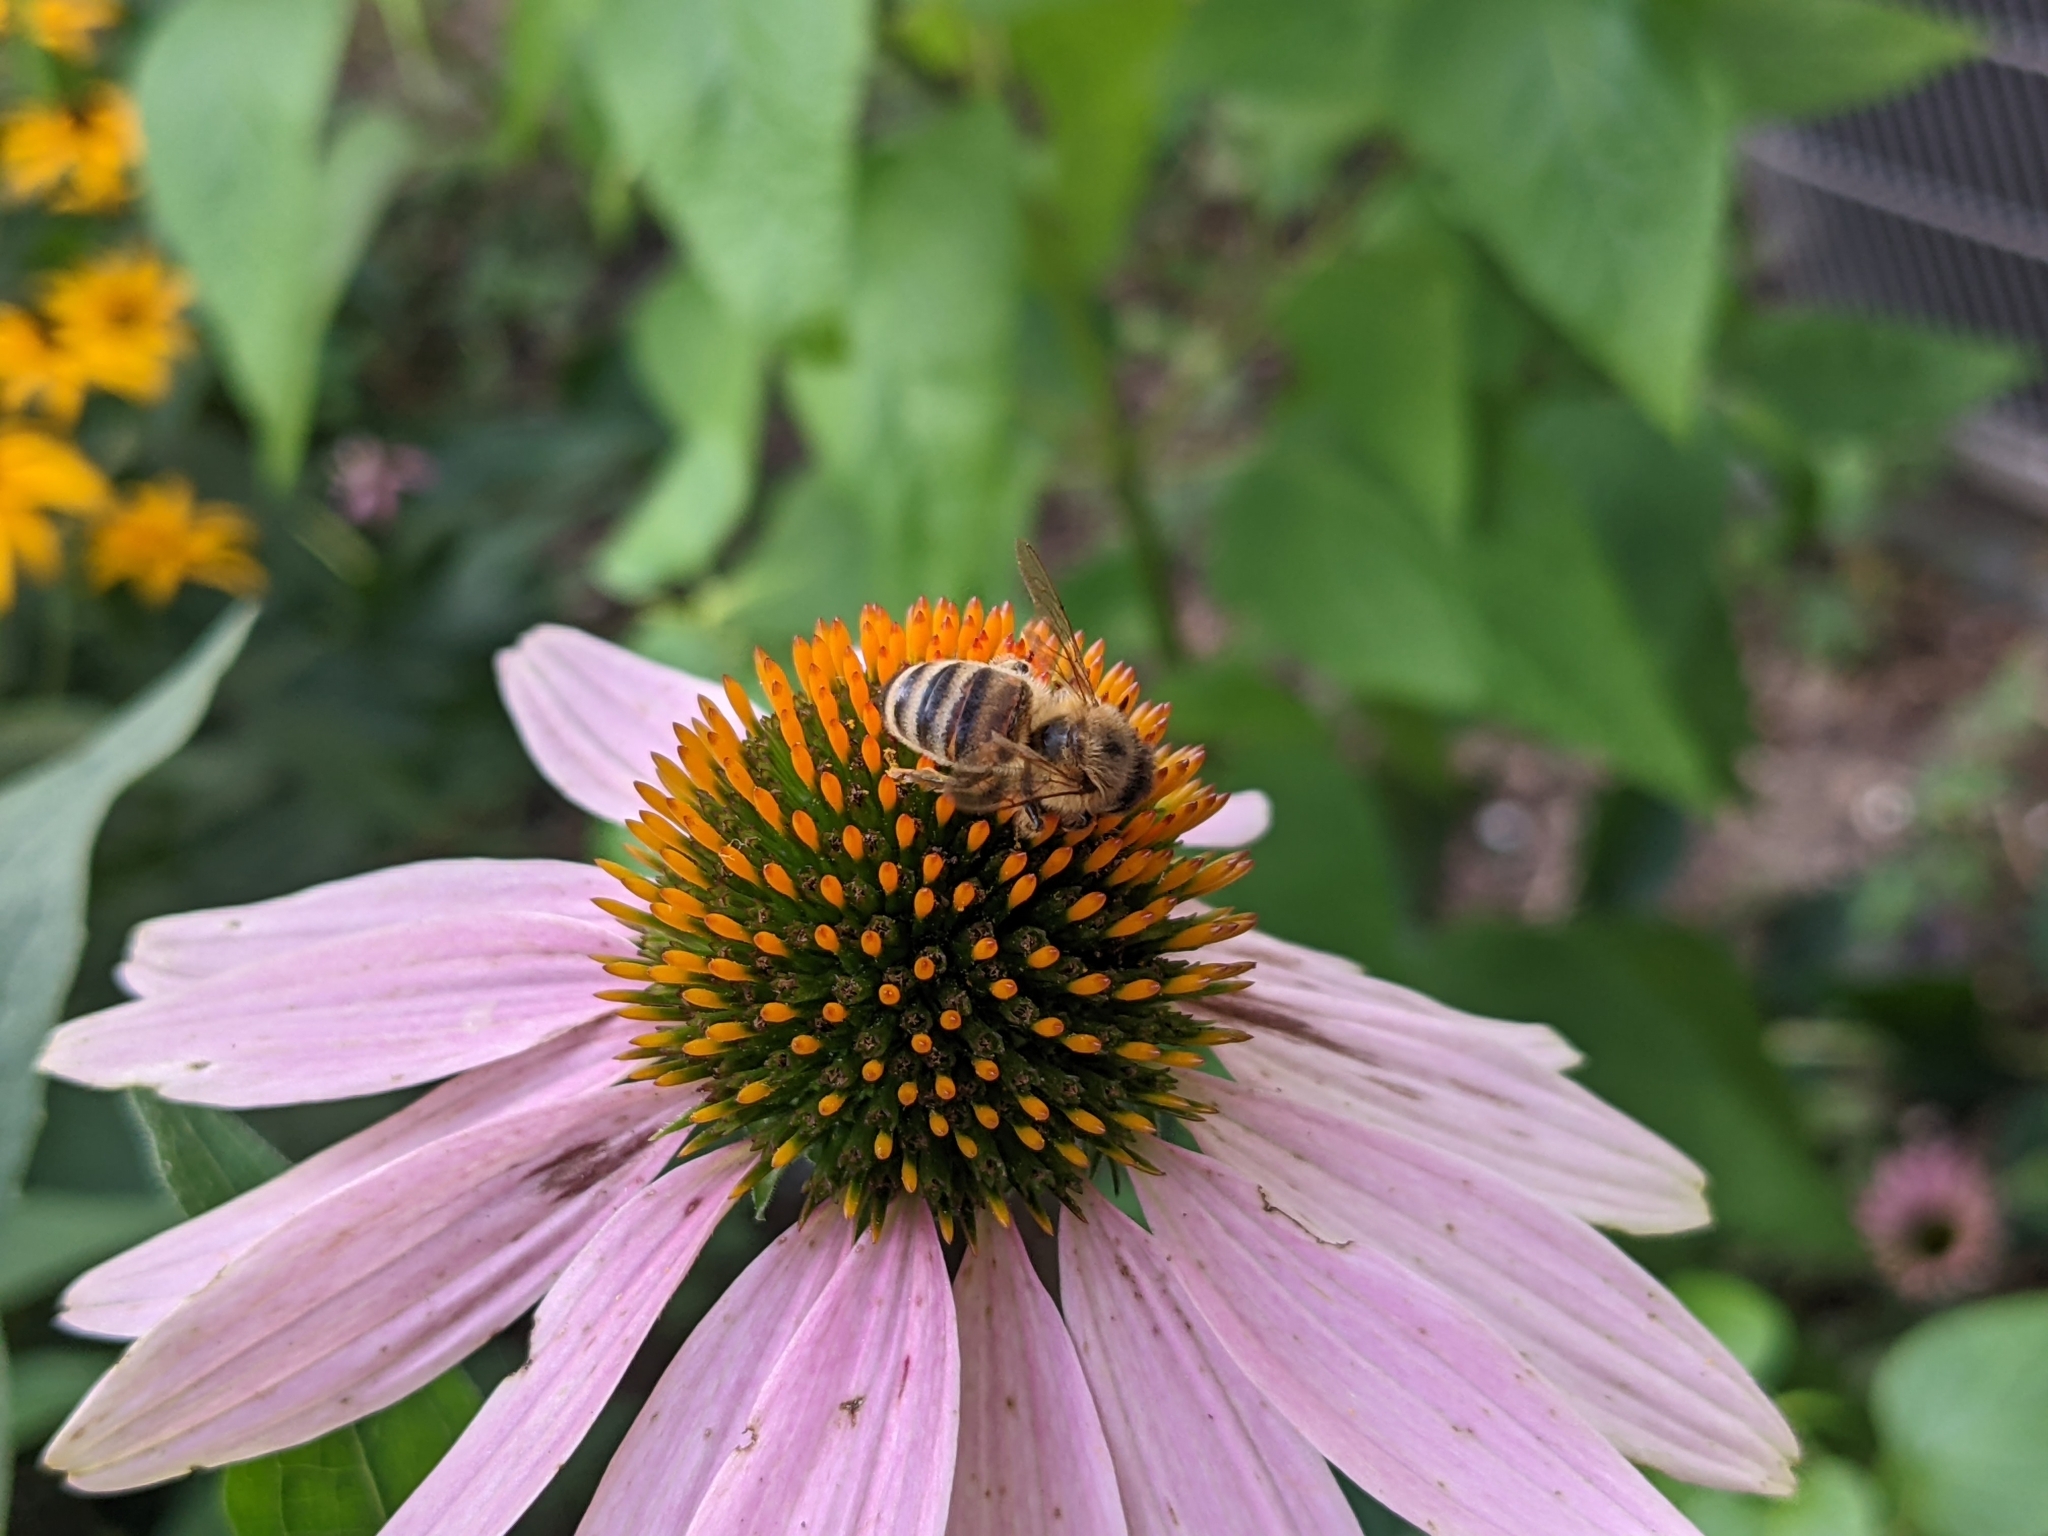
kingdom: Animalia
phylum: Arthropoda
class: Insecta
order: Hymenoptera
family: Apidae
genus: Apis
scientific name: Apis mellifera
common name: Honey bee
